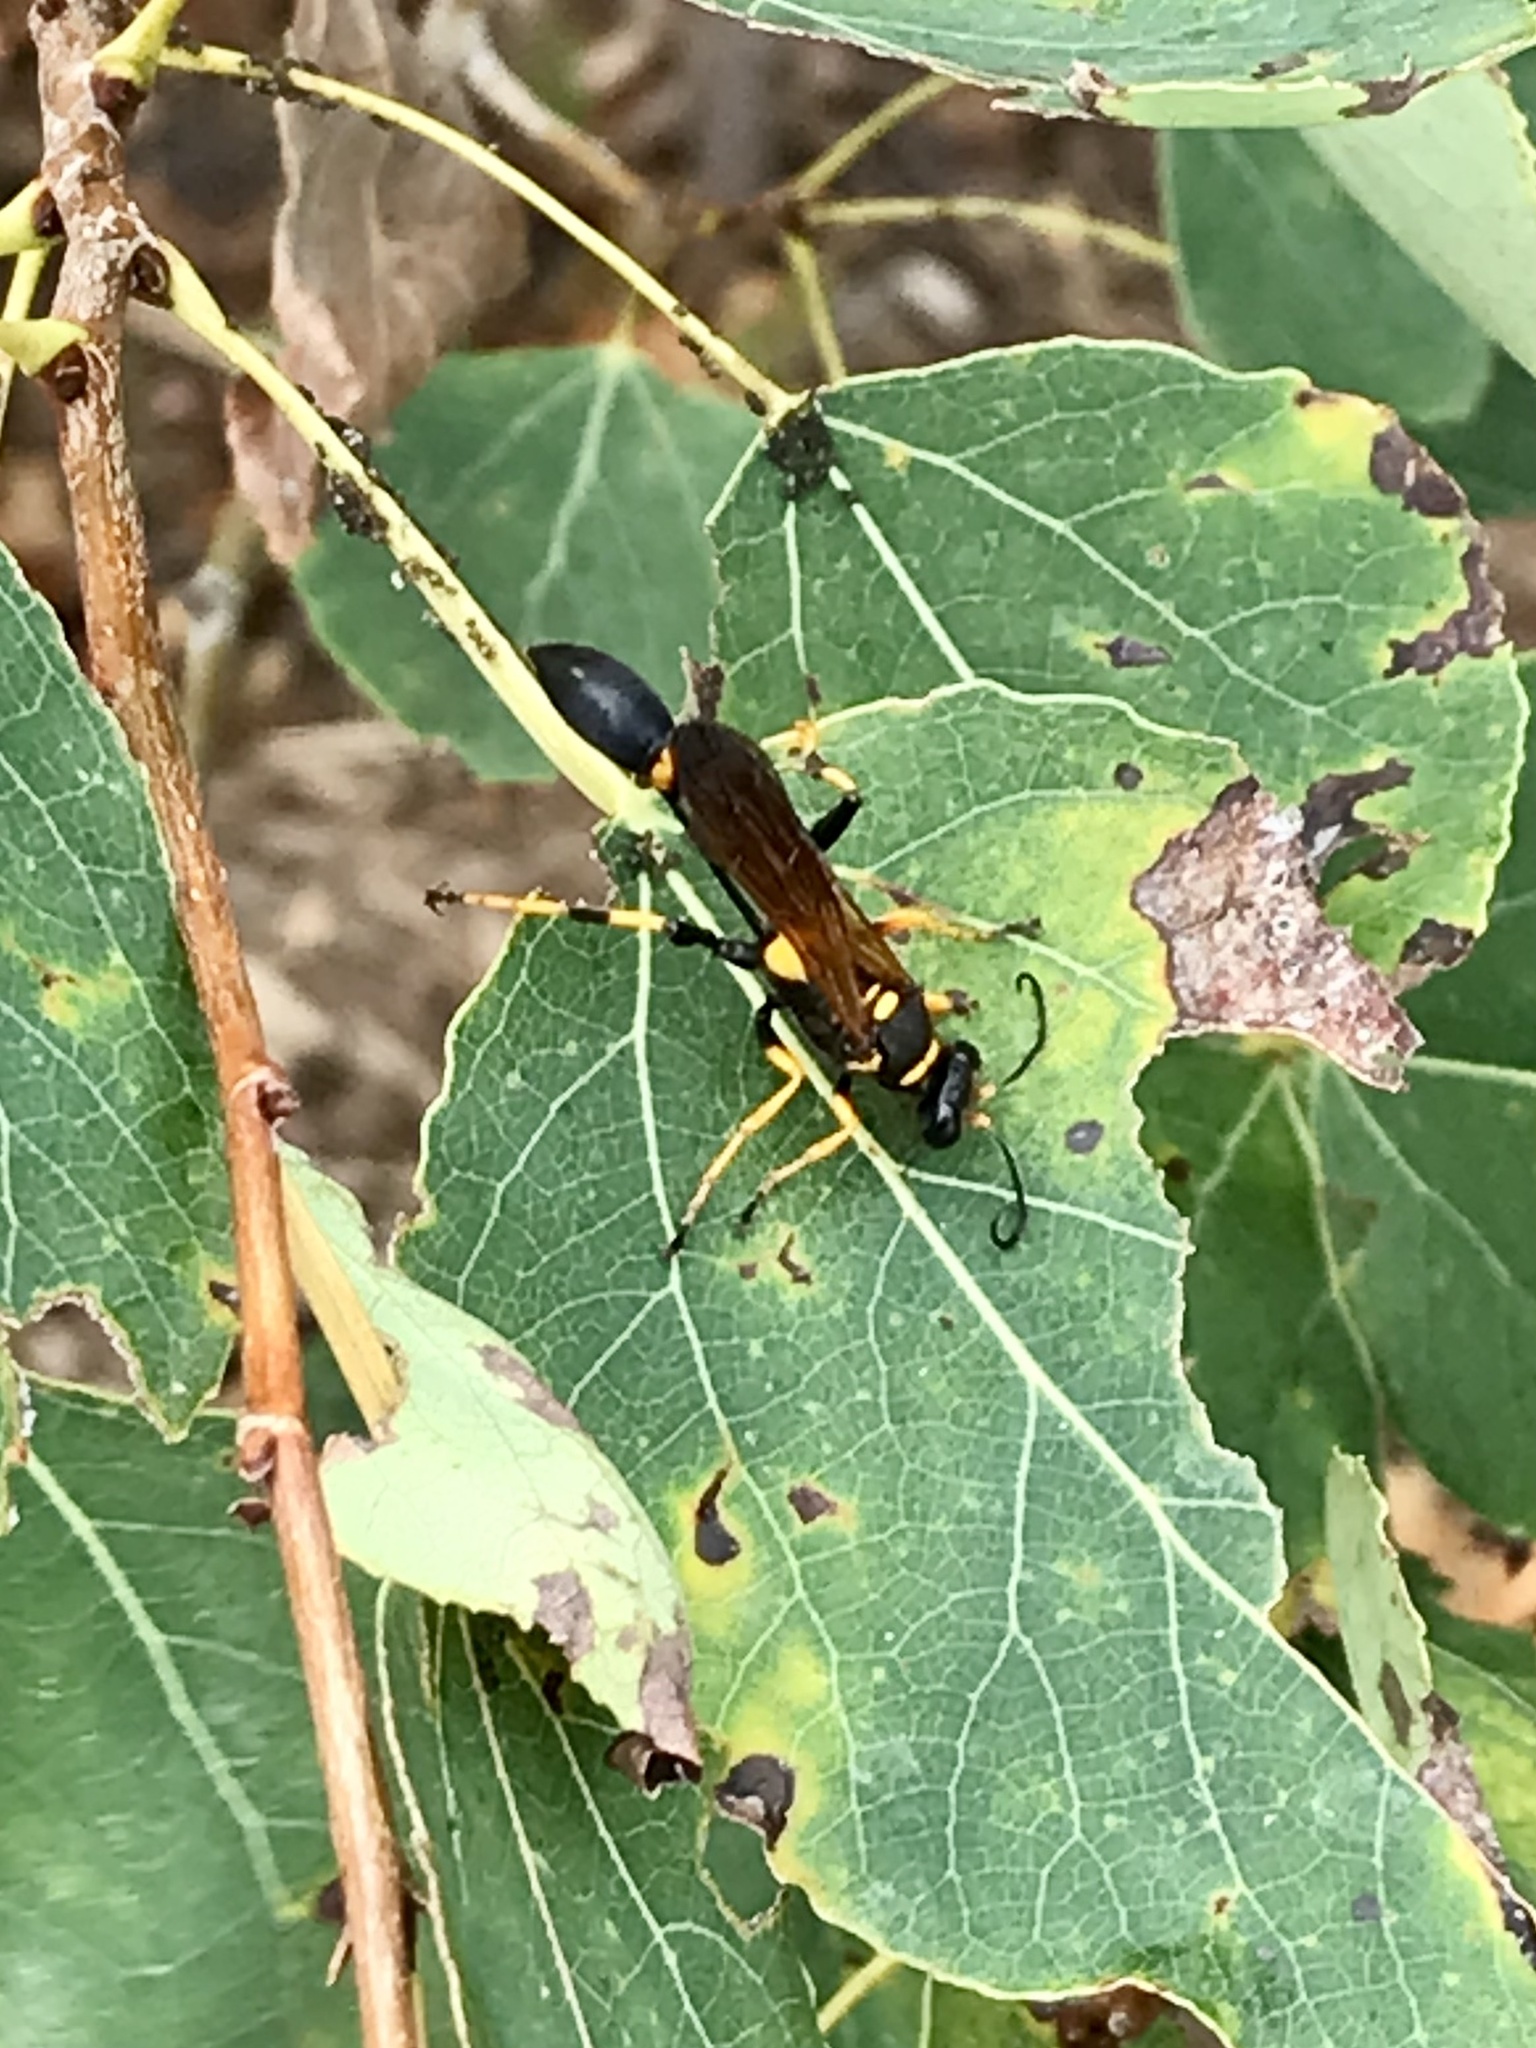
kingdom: Animalia
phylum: Arthropoda
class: Insecta
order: Hymenoptera
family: Sphecidae
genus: Sceliphron
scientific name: Sceliphron caementarium
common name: Mud dauber
